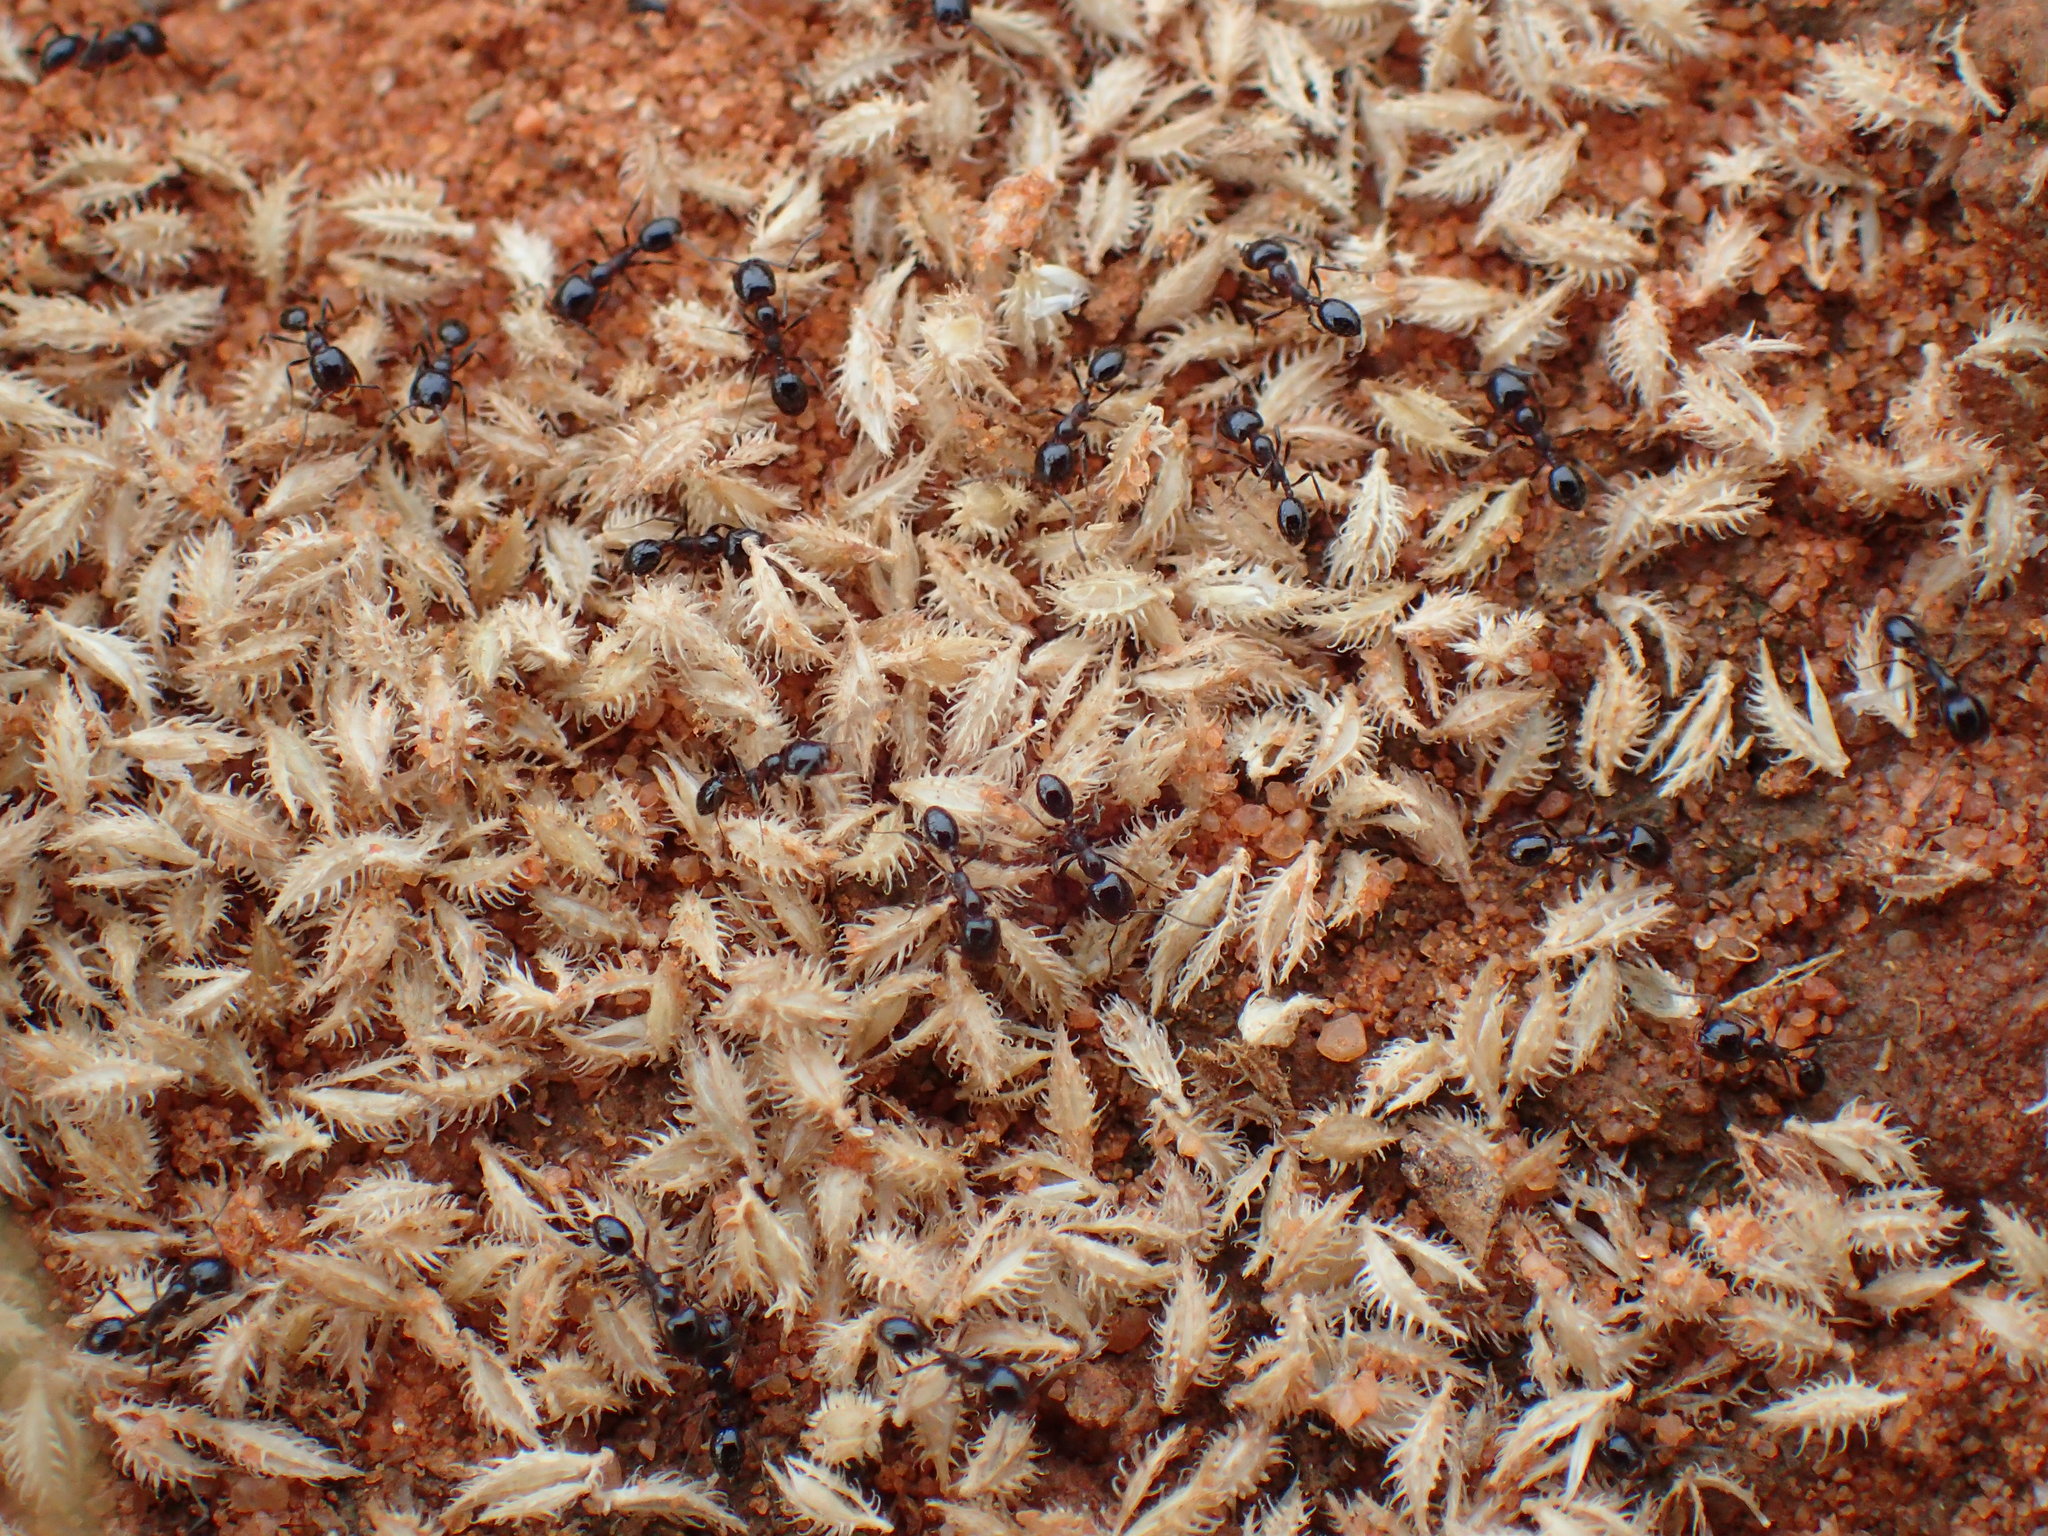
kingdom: Animalia
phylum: Arthropoda
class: Insecta
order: Hymenoptera
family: Formicidae
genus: Monomorium
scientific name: Monomorium fridae
